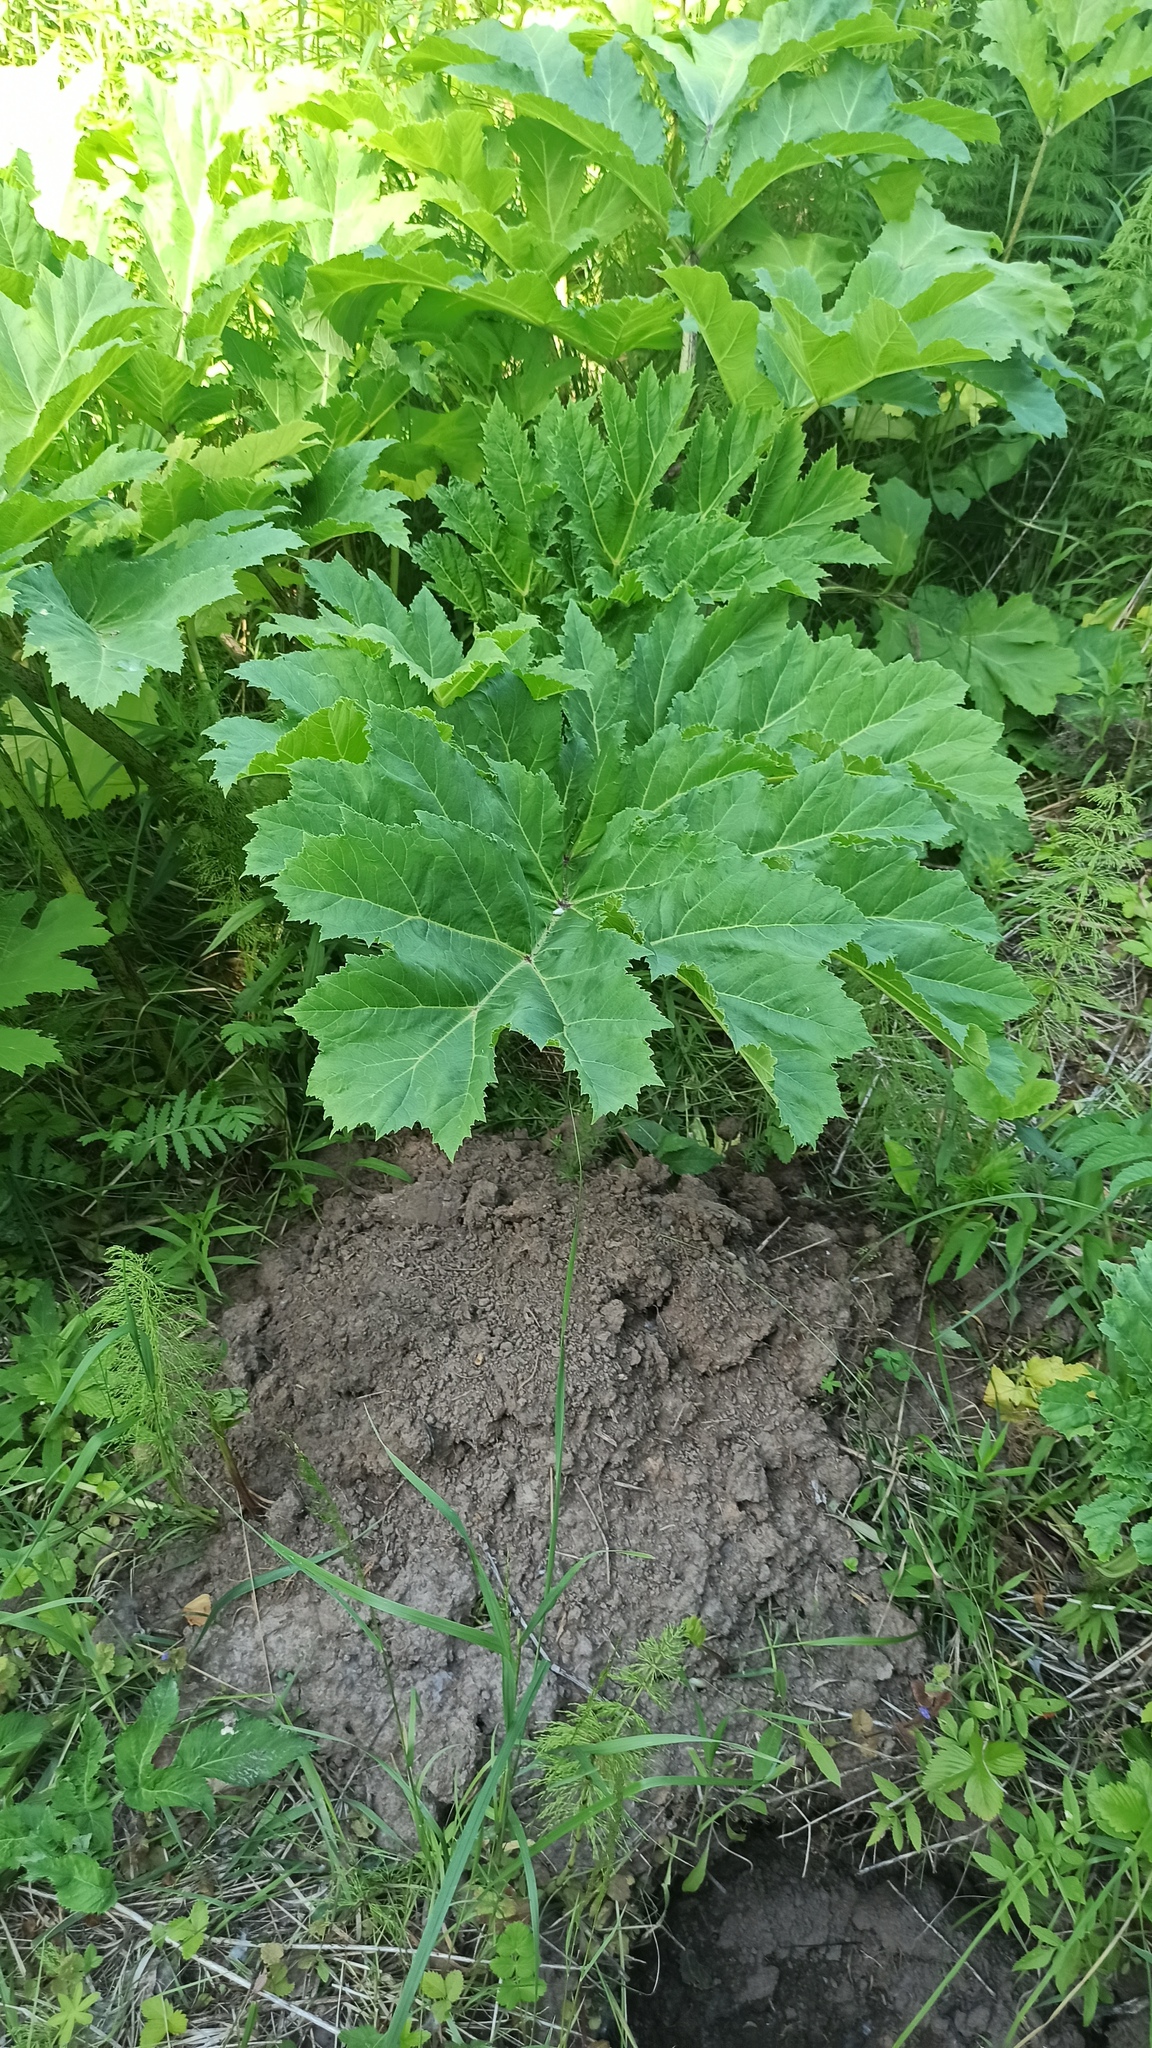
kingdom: Plantae
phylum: Tracheophyta
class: Magnoliopsida
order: Apiales
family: Apiaceae
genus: Heracleum
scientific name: Heracleum sosnowskyi
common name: Sosnowsky's hogweed
